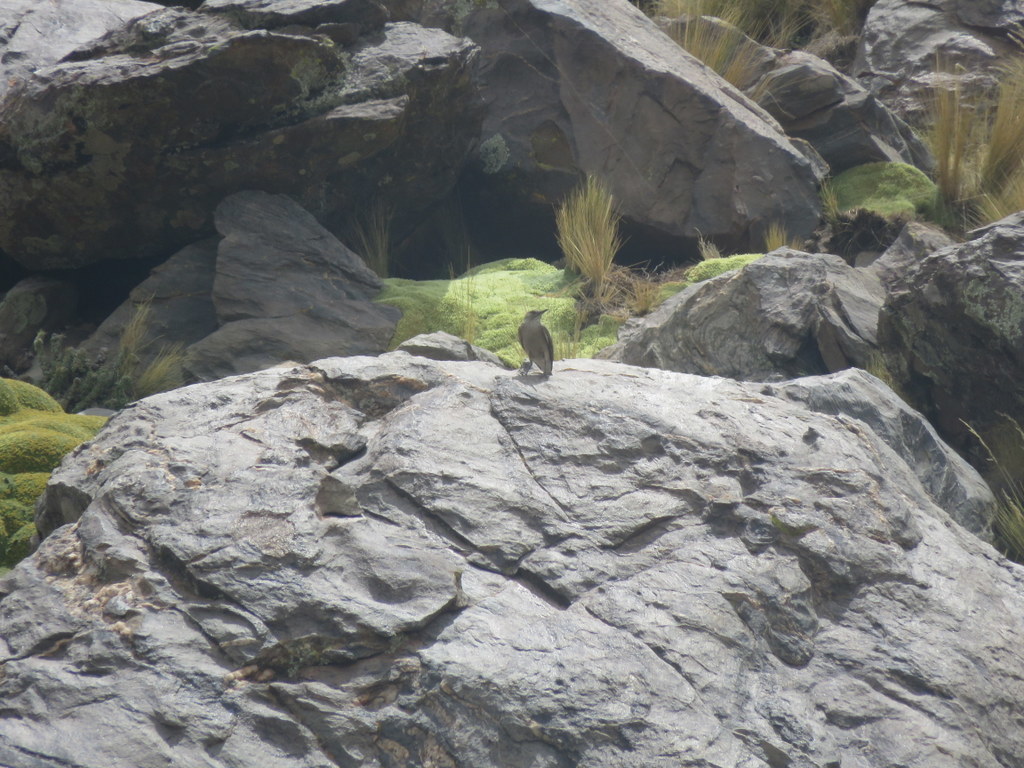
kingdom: Animalia
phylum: Chordata
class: Aves
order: Passeriformes
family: Tyrannidae
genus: Agriornis
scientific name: Agriornis montanus
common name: Black-billed shrike-tyrant
